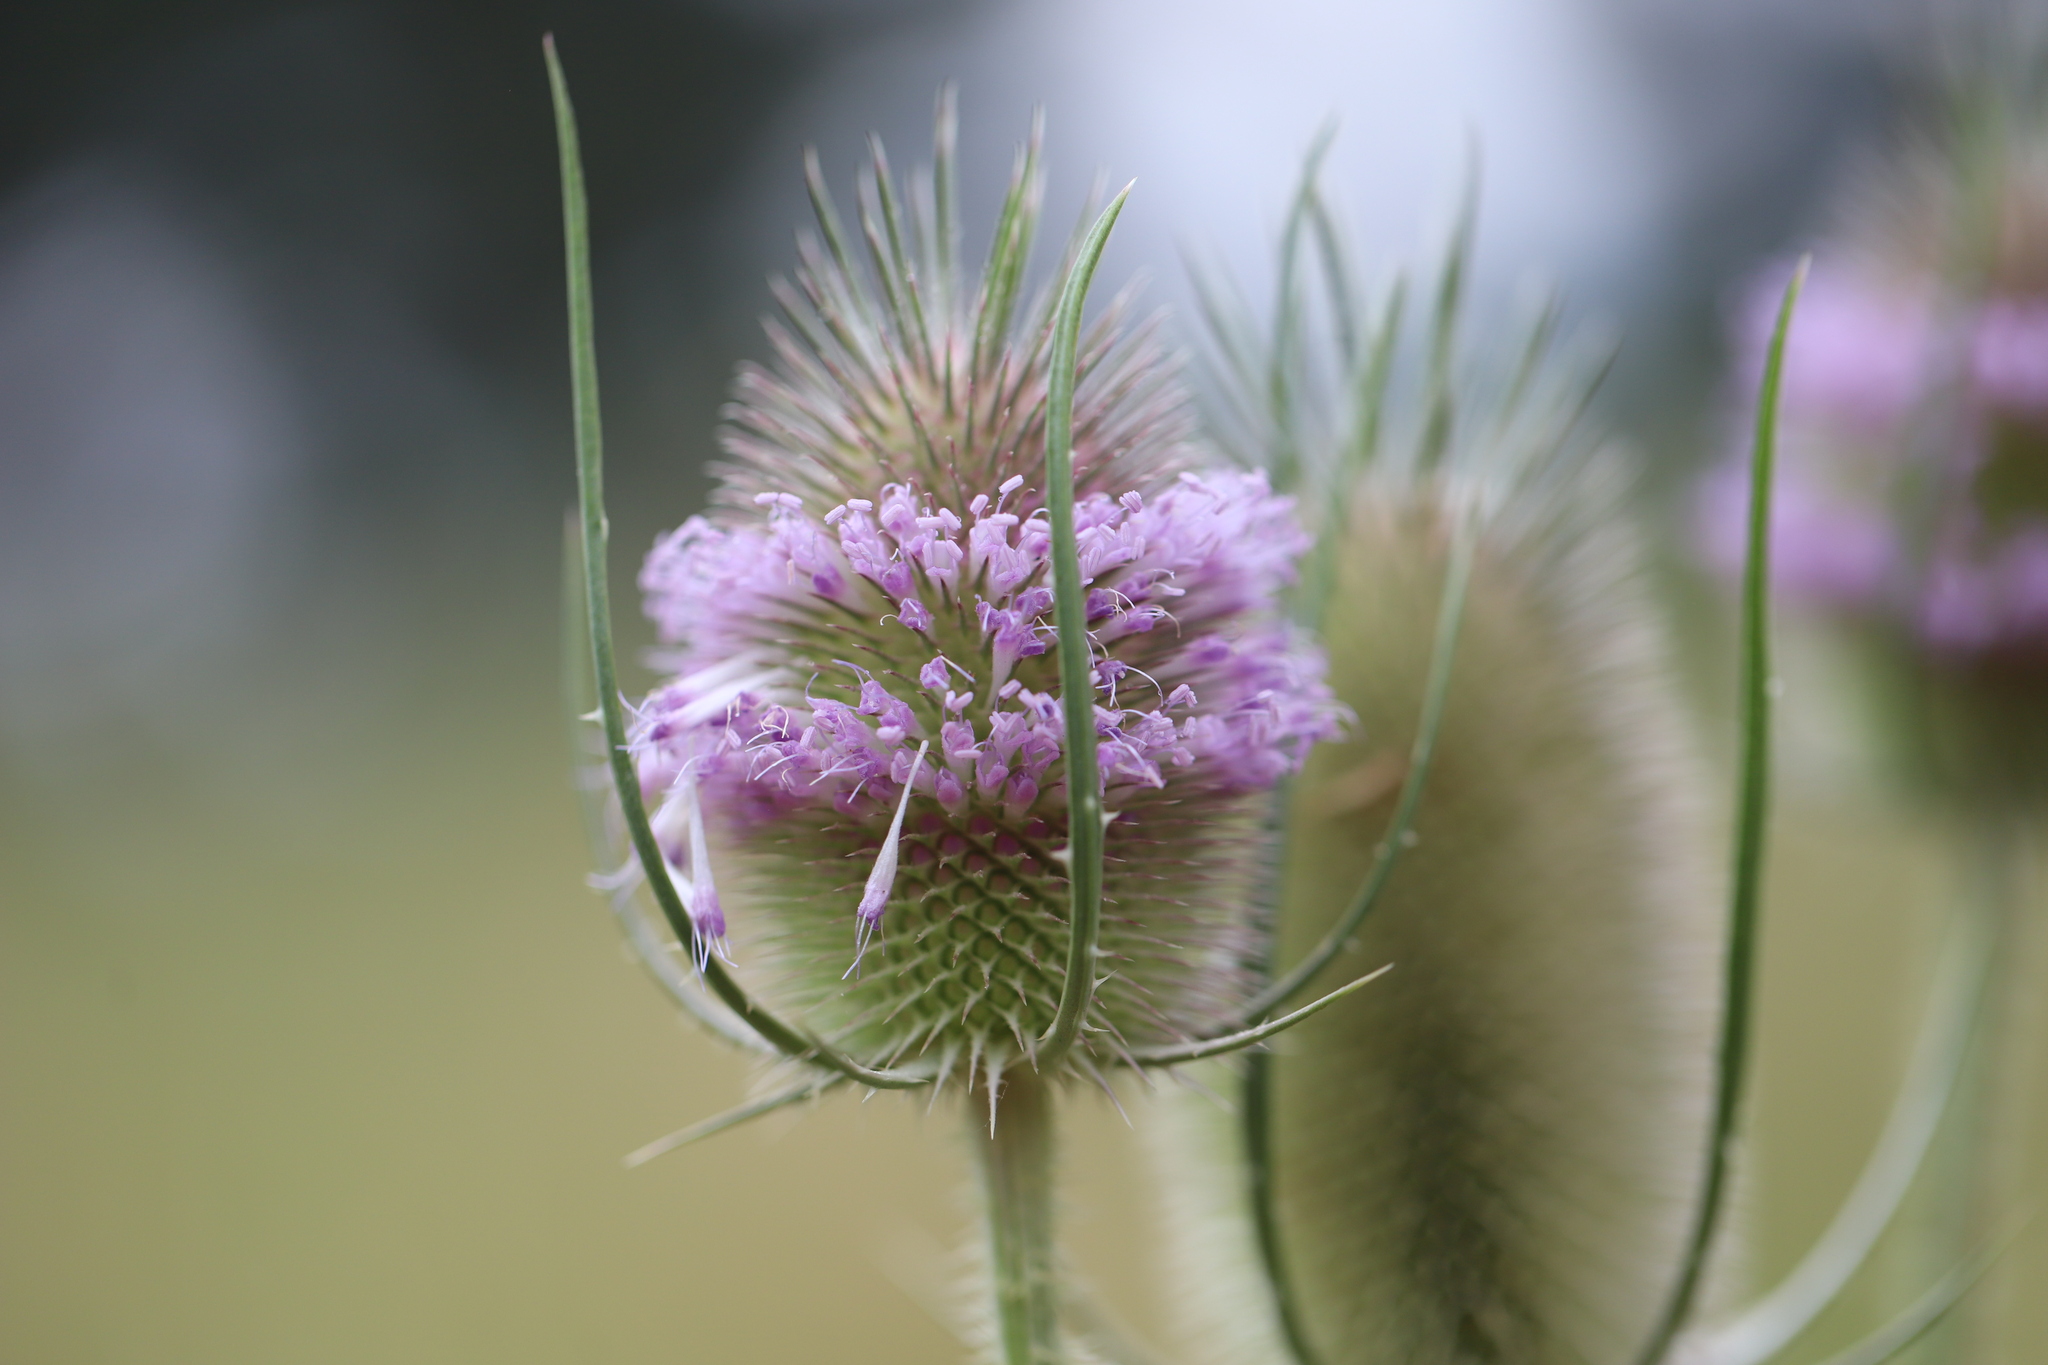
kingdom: Plantae
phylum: Tracheophyta
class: Magnoliopsida
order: Dipsacales
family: Caprifoliaceae
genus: Dipsacus
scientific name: Dipsacus fullonum
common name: Teasel
